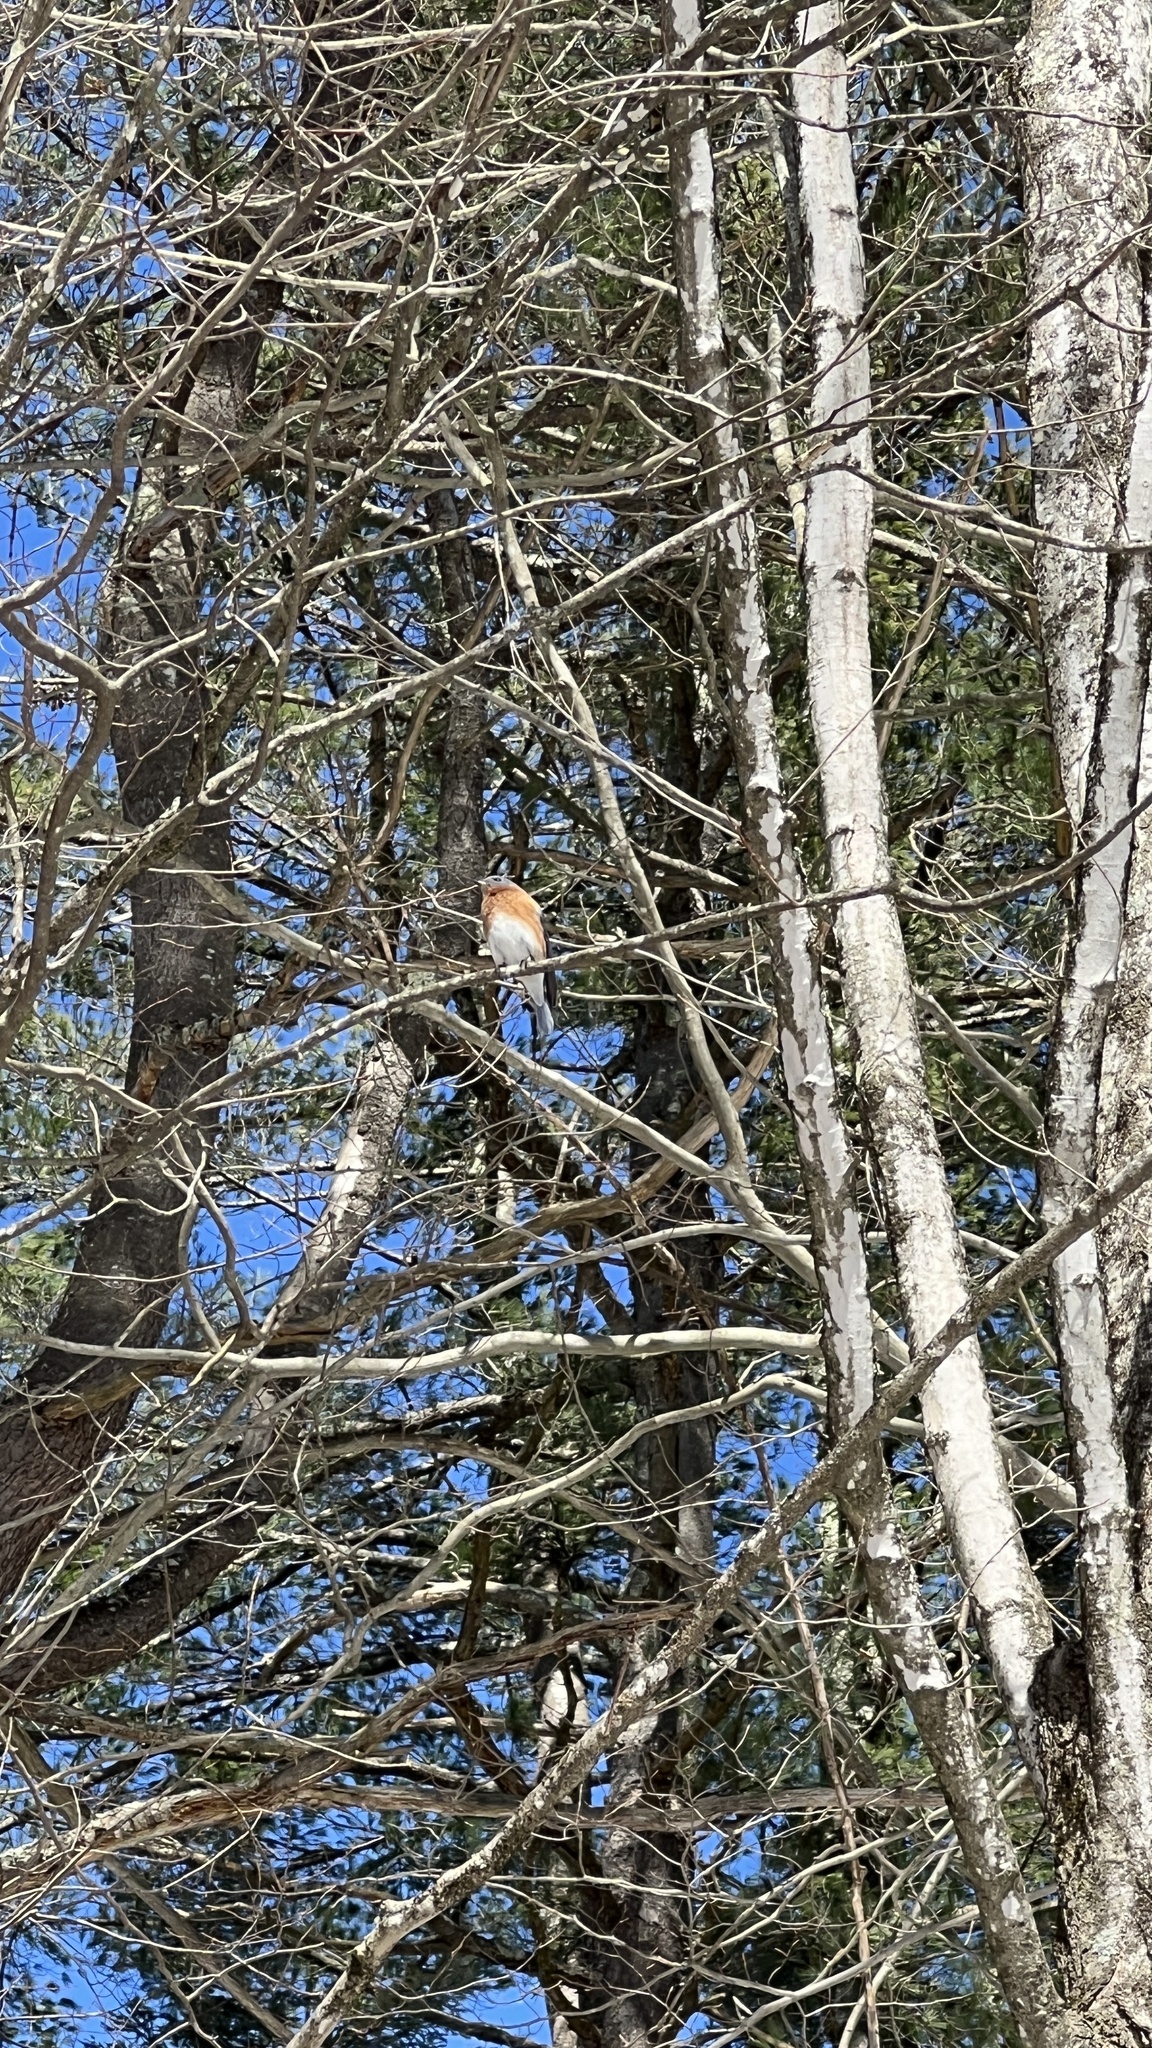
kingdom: Animalia
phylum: Chordata
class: Aves
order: Passeriformes
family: Turdidae
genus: Sialia
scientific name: Sialia sialis
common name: Eastern bluebird
